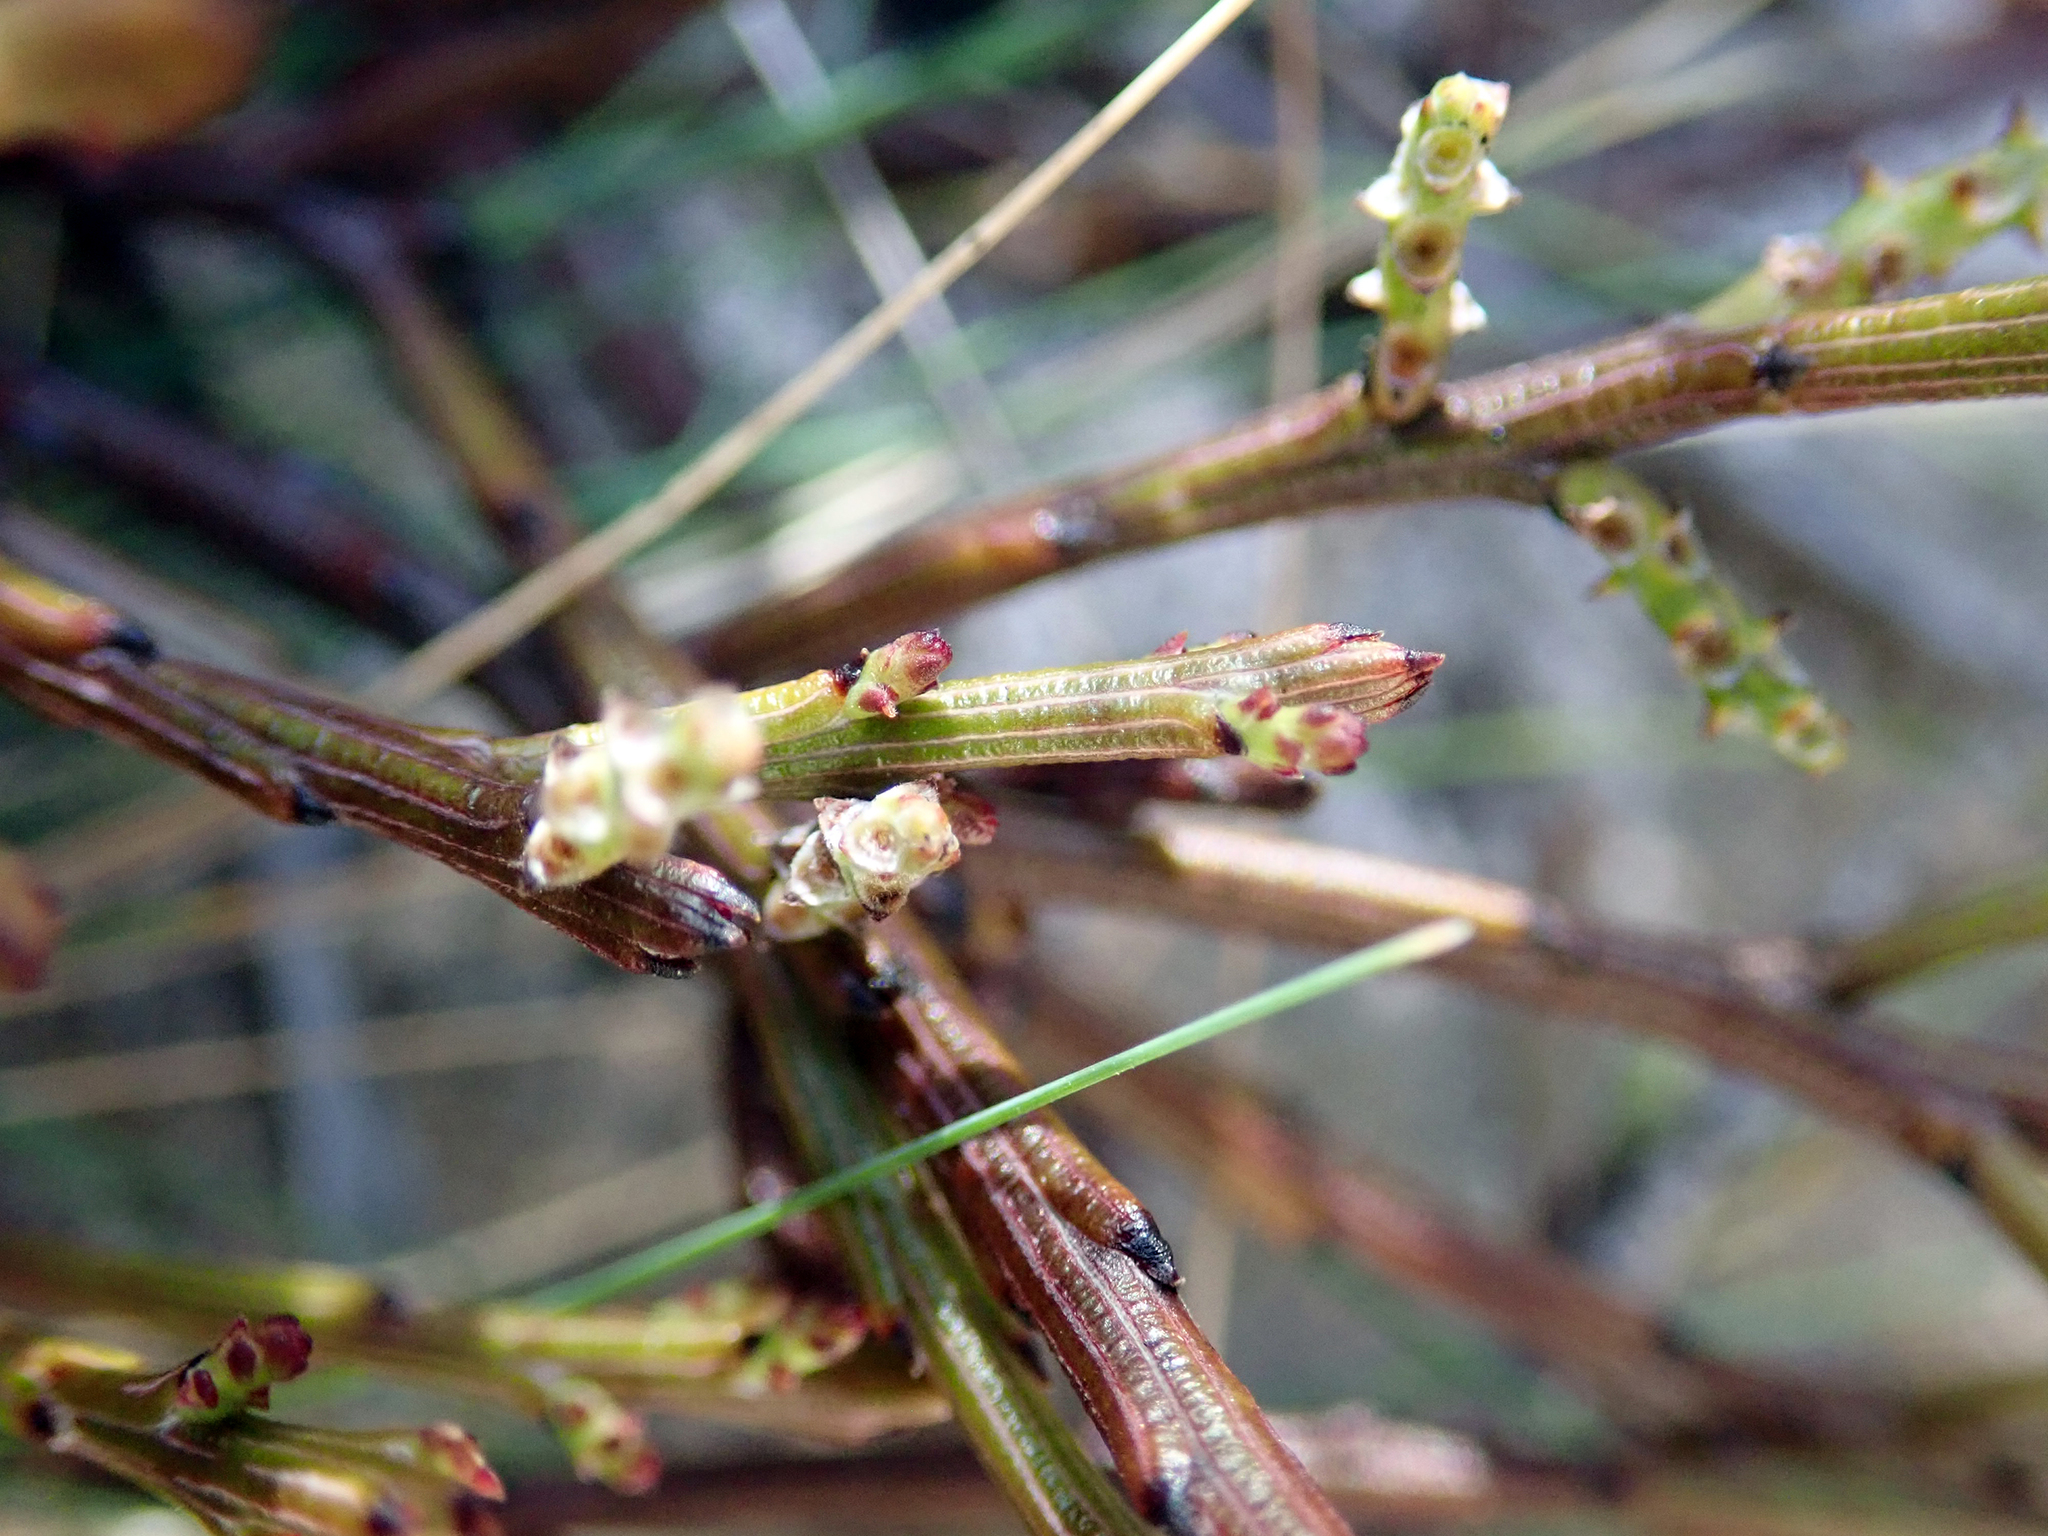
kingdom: Plantae
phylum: Tracheophyta
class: Magnoliopsida
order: Santalales
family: Santalaceae
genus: Exocarpos
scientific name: Exocarpos bidwillii
